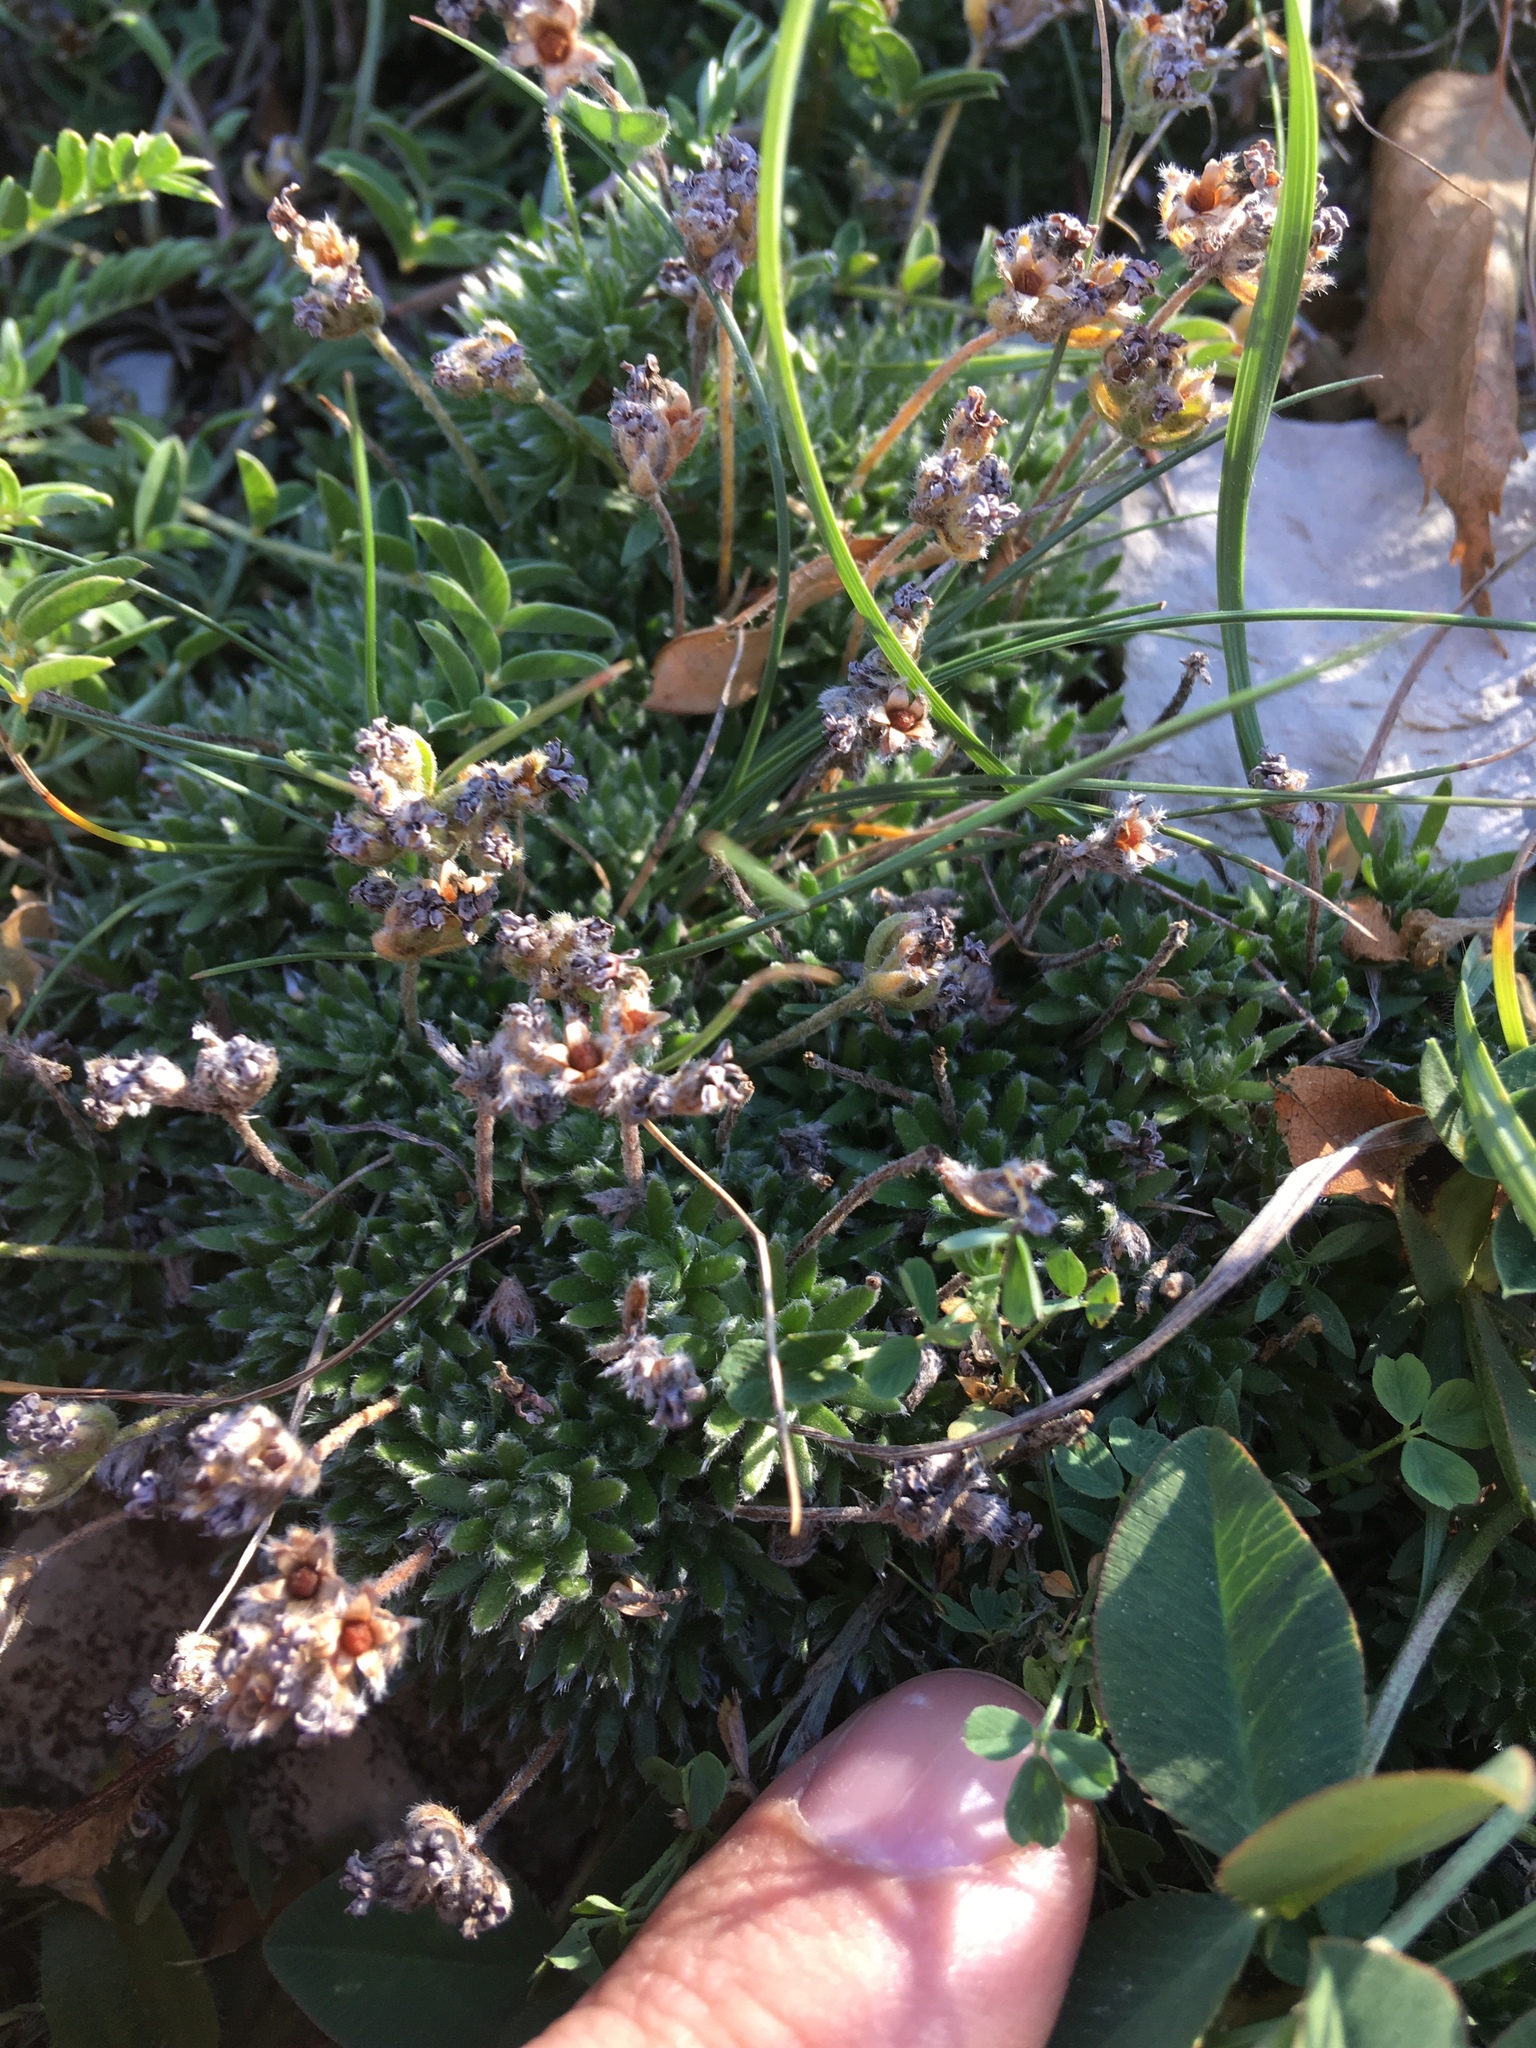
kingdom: Plantae
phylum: Tracheophyta
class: Magnoliopsida
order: Ericales
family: Primulaceae
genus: Androsace
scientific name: Androsace villosa
